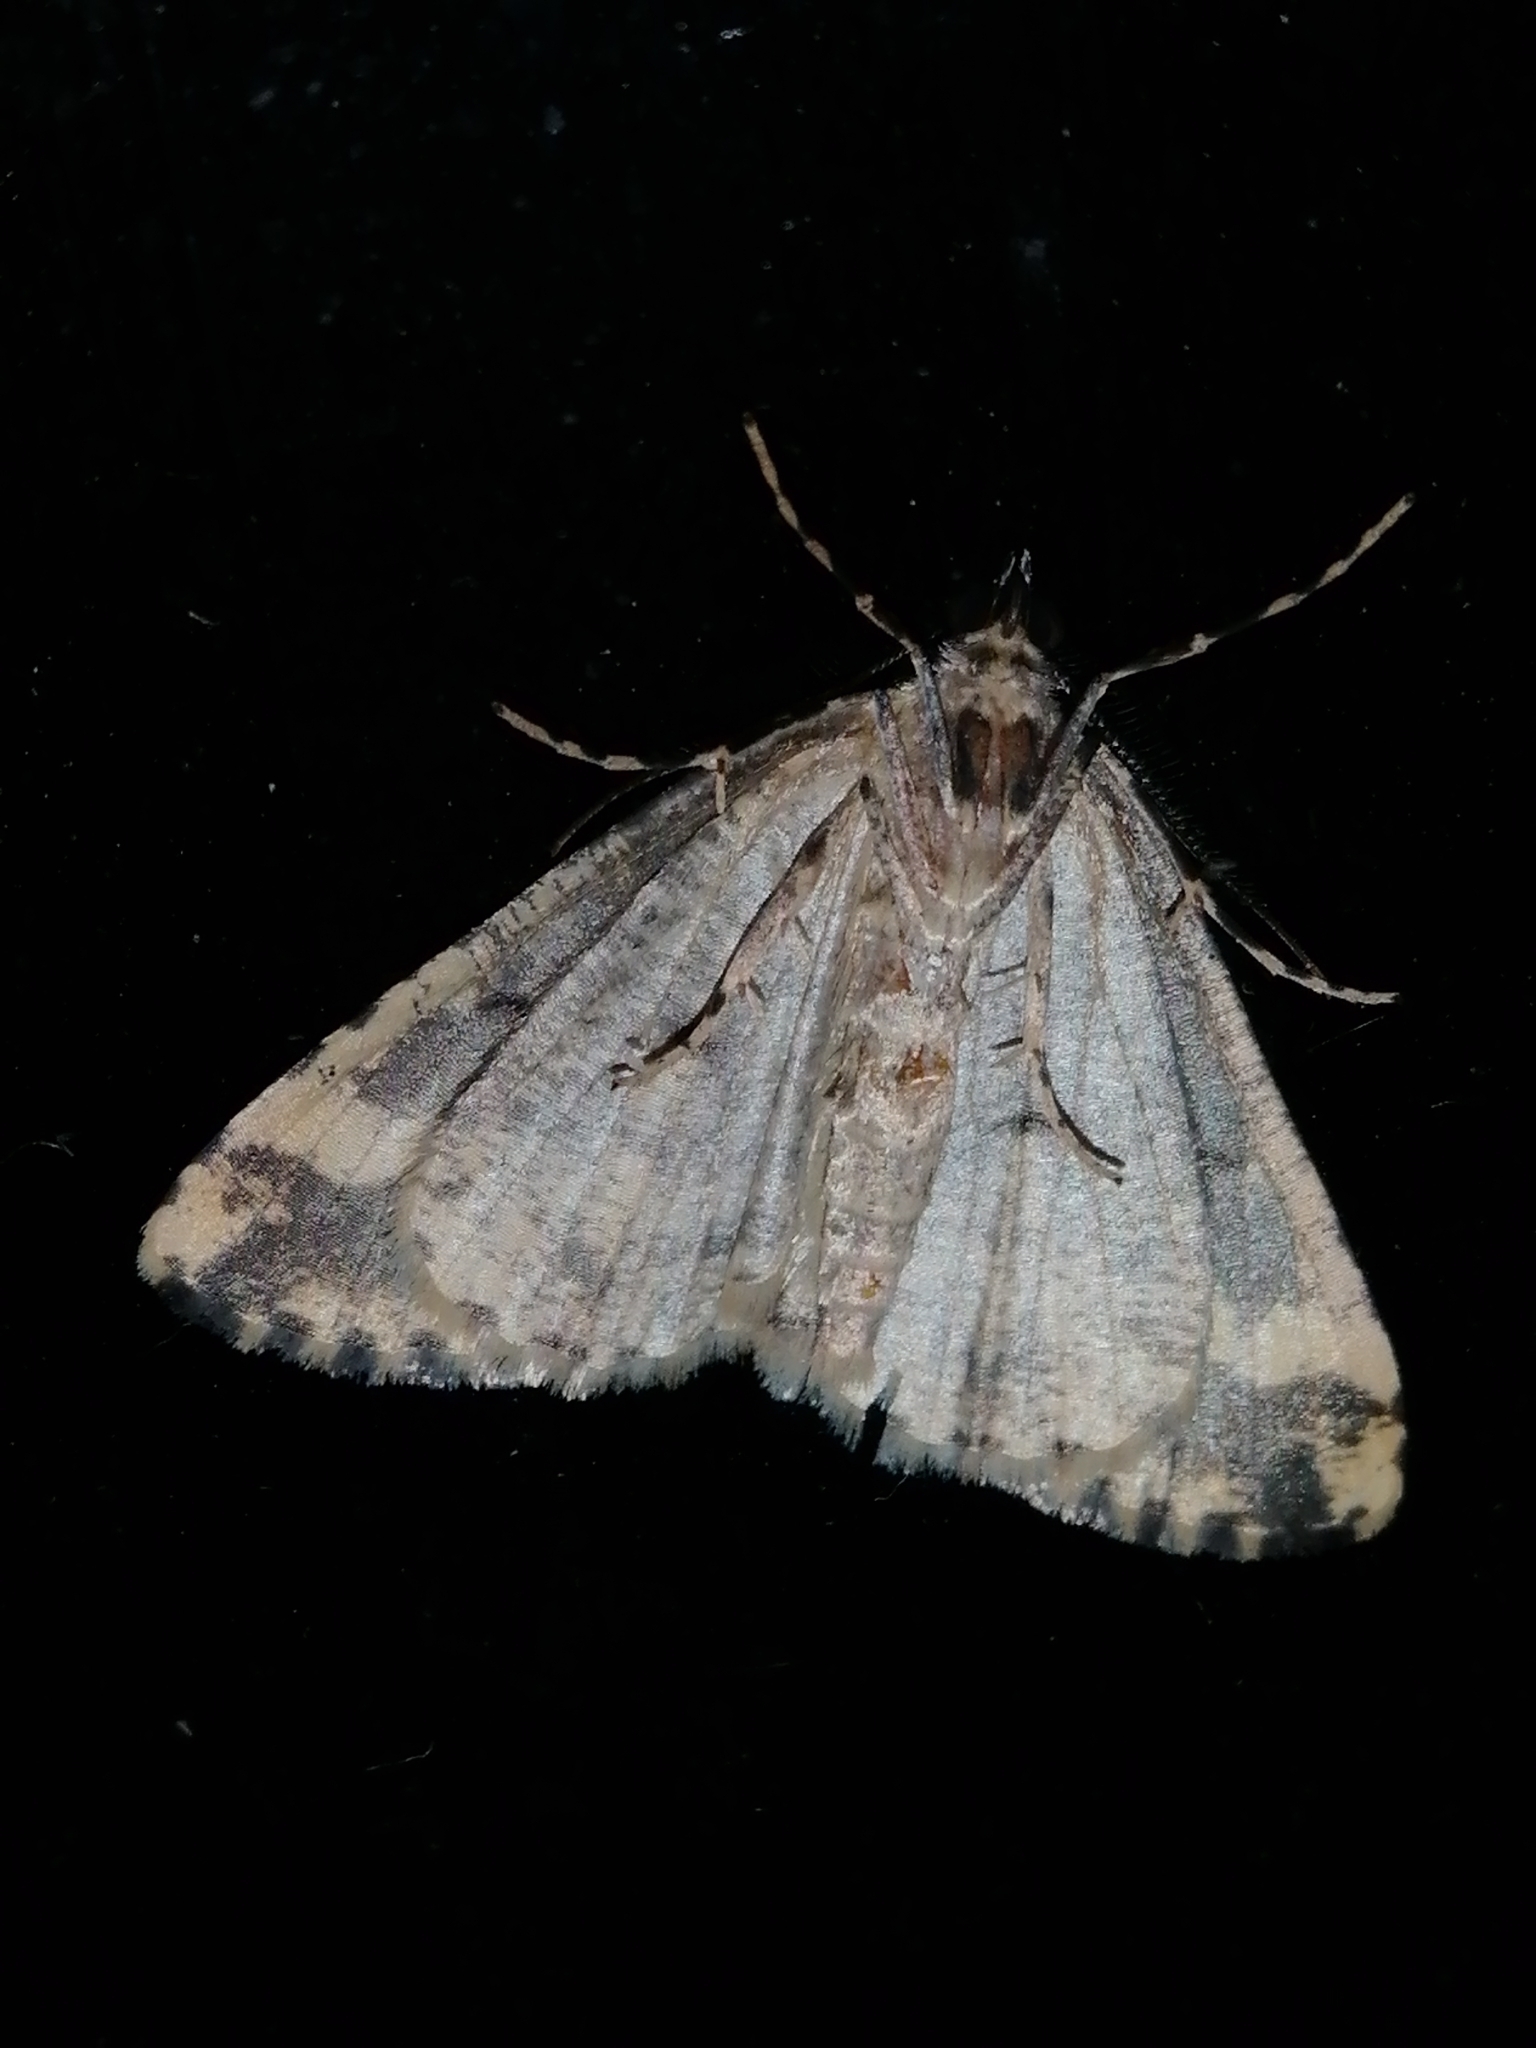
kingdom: Animalia
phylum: Arthropoda
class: Insecta
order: Lepidoptera
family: Geometridae
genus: Pseudocoremia
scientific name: Pseudocoremia leucelaea
